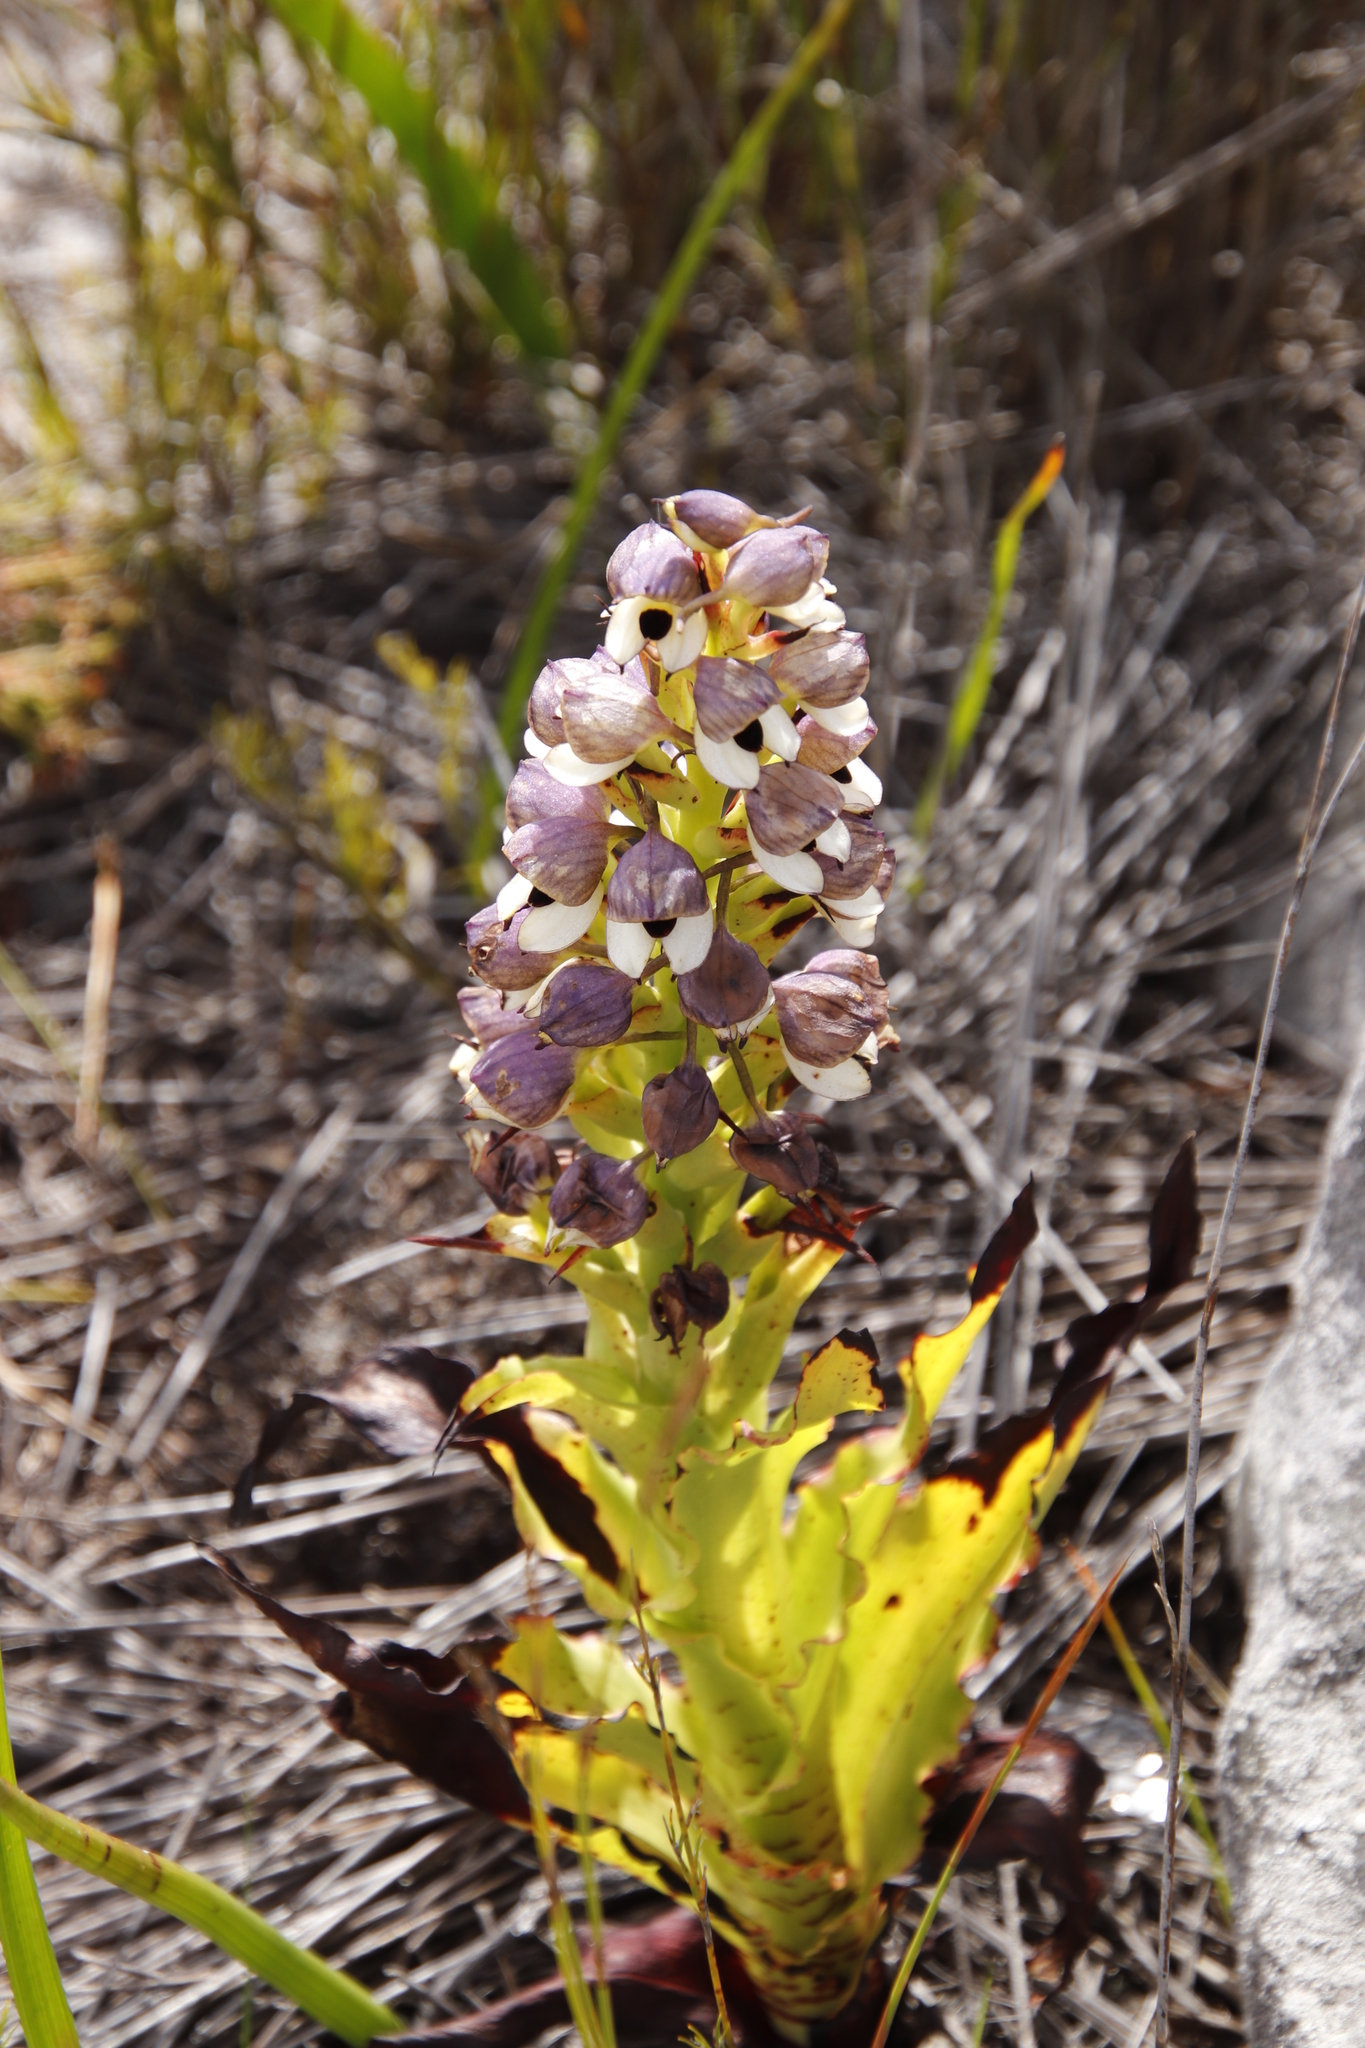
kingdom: Plantae
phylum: Tracheophyta
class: Liliopsida
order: Asparagales
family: Orchidaceae
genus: Disa
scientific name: Disa cornuta
